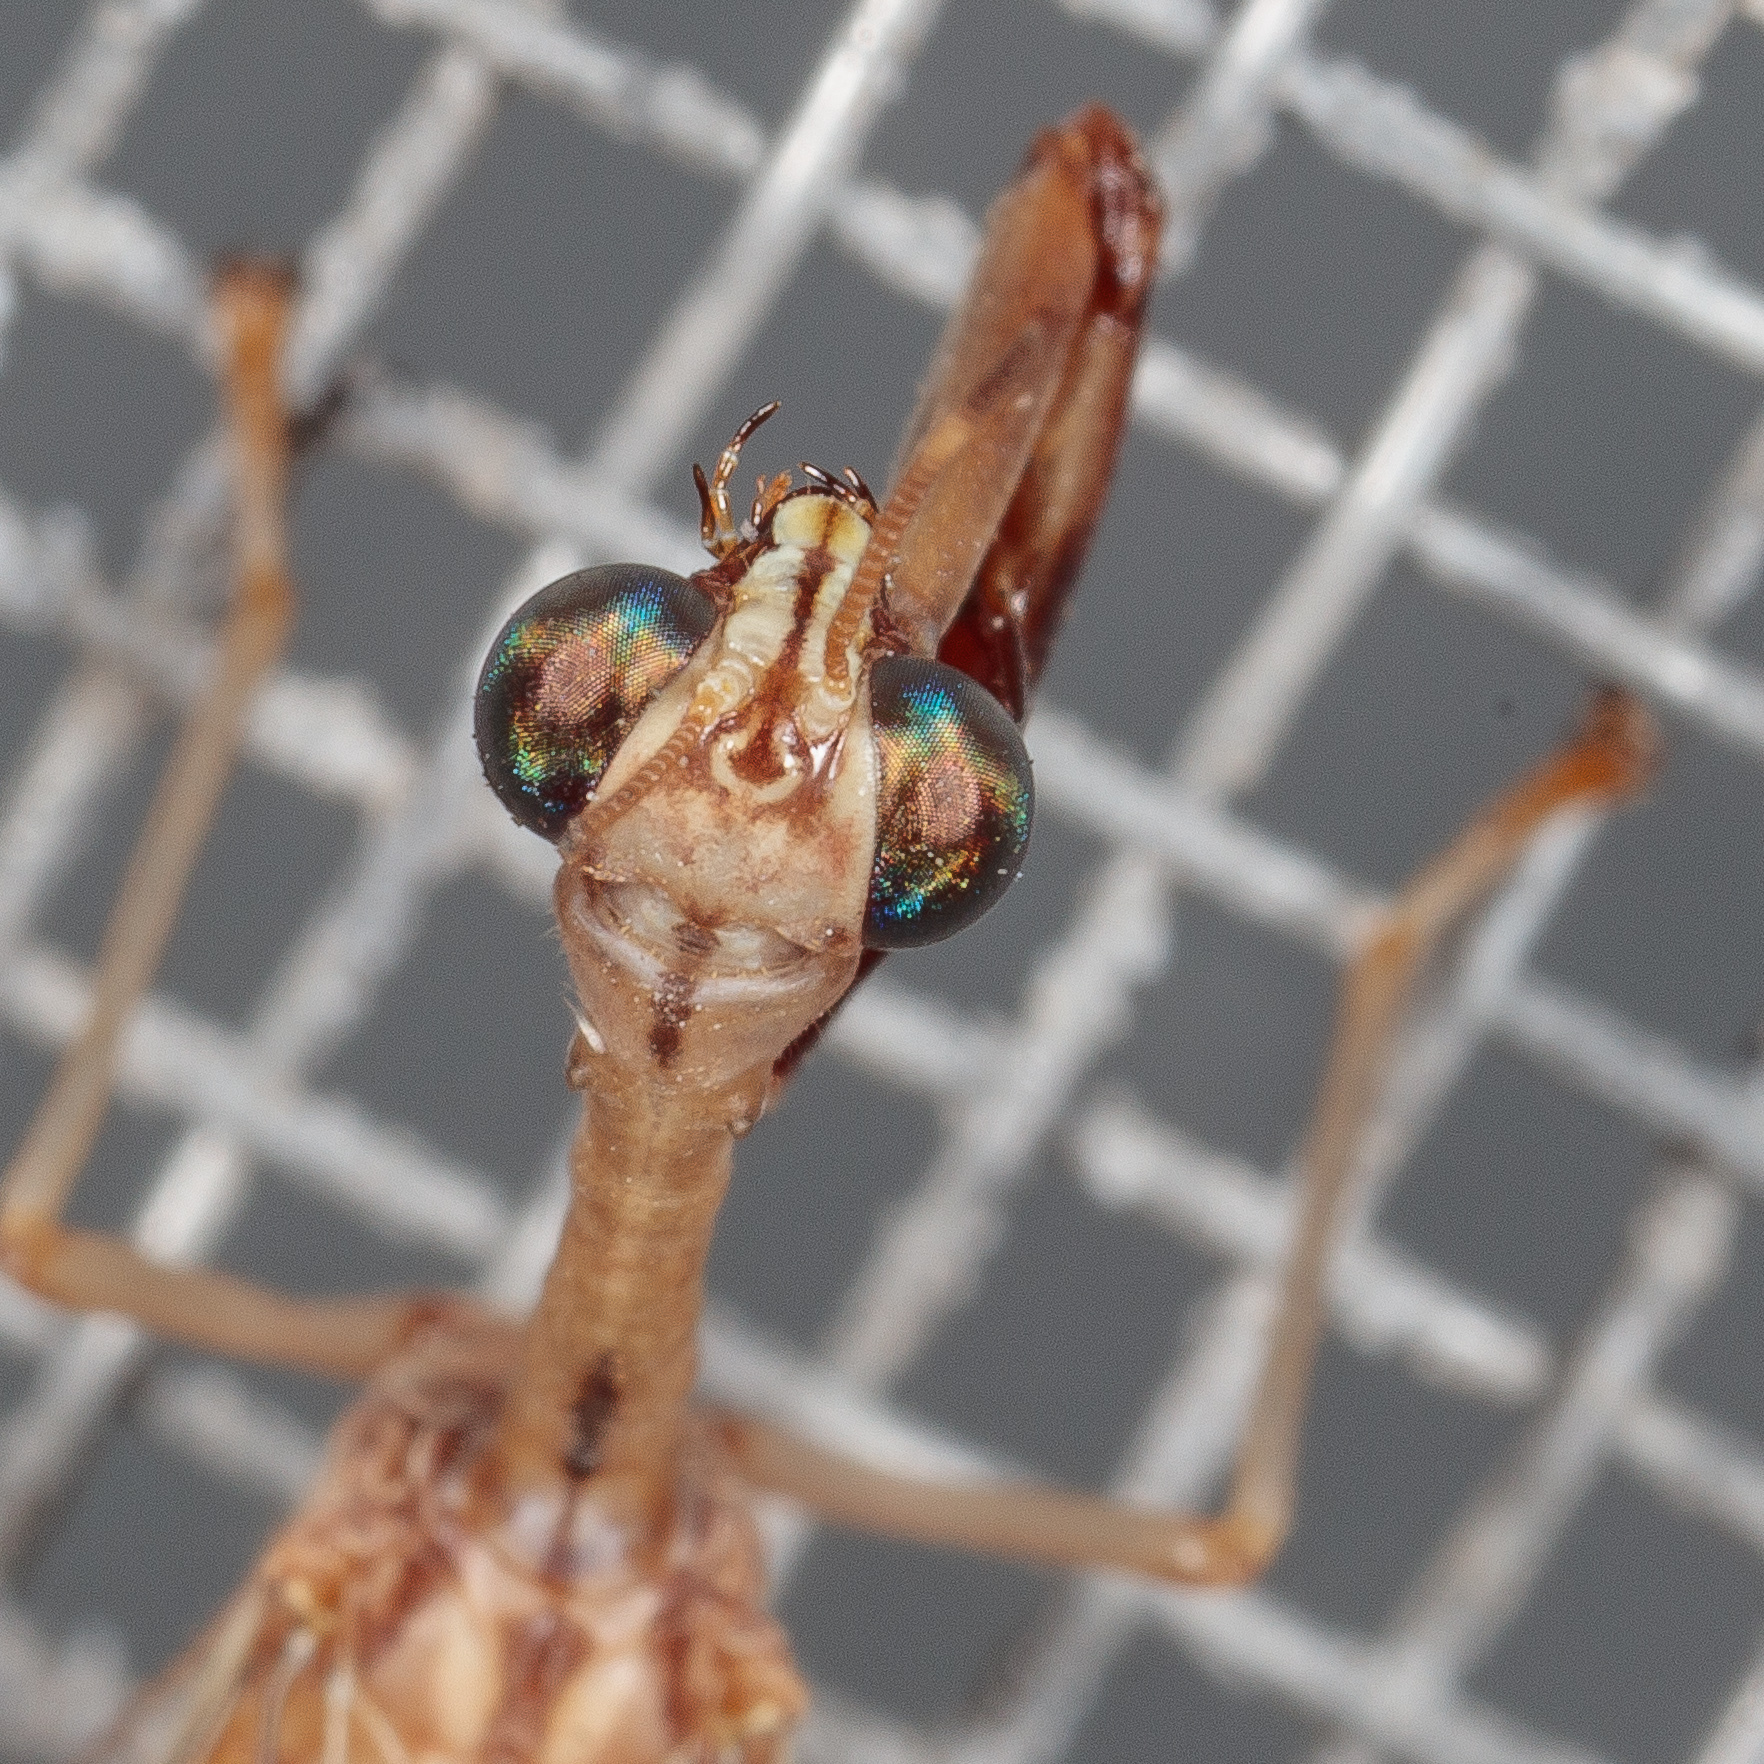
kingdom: Animalia
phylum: Arthropoda
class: Insecta
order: Neuroptera
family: Mantispidae
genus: Dicromantispa
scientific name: Dicromantispa interrupta
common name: Four-spotted mantidfly
